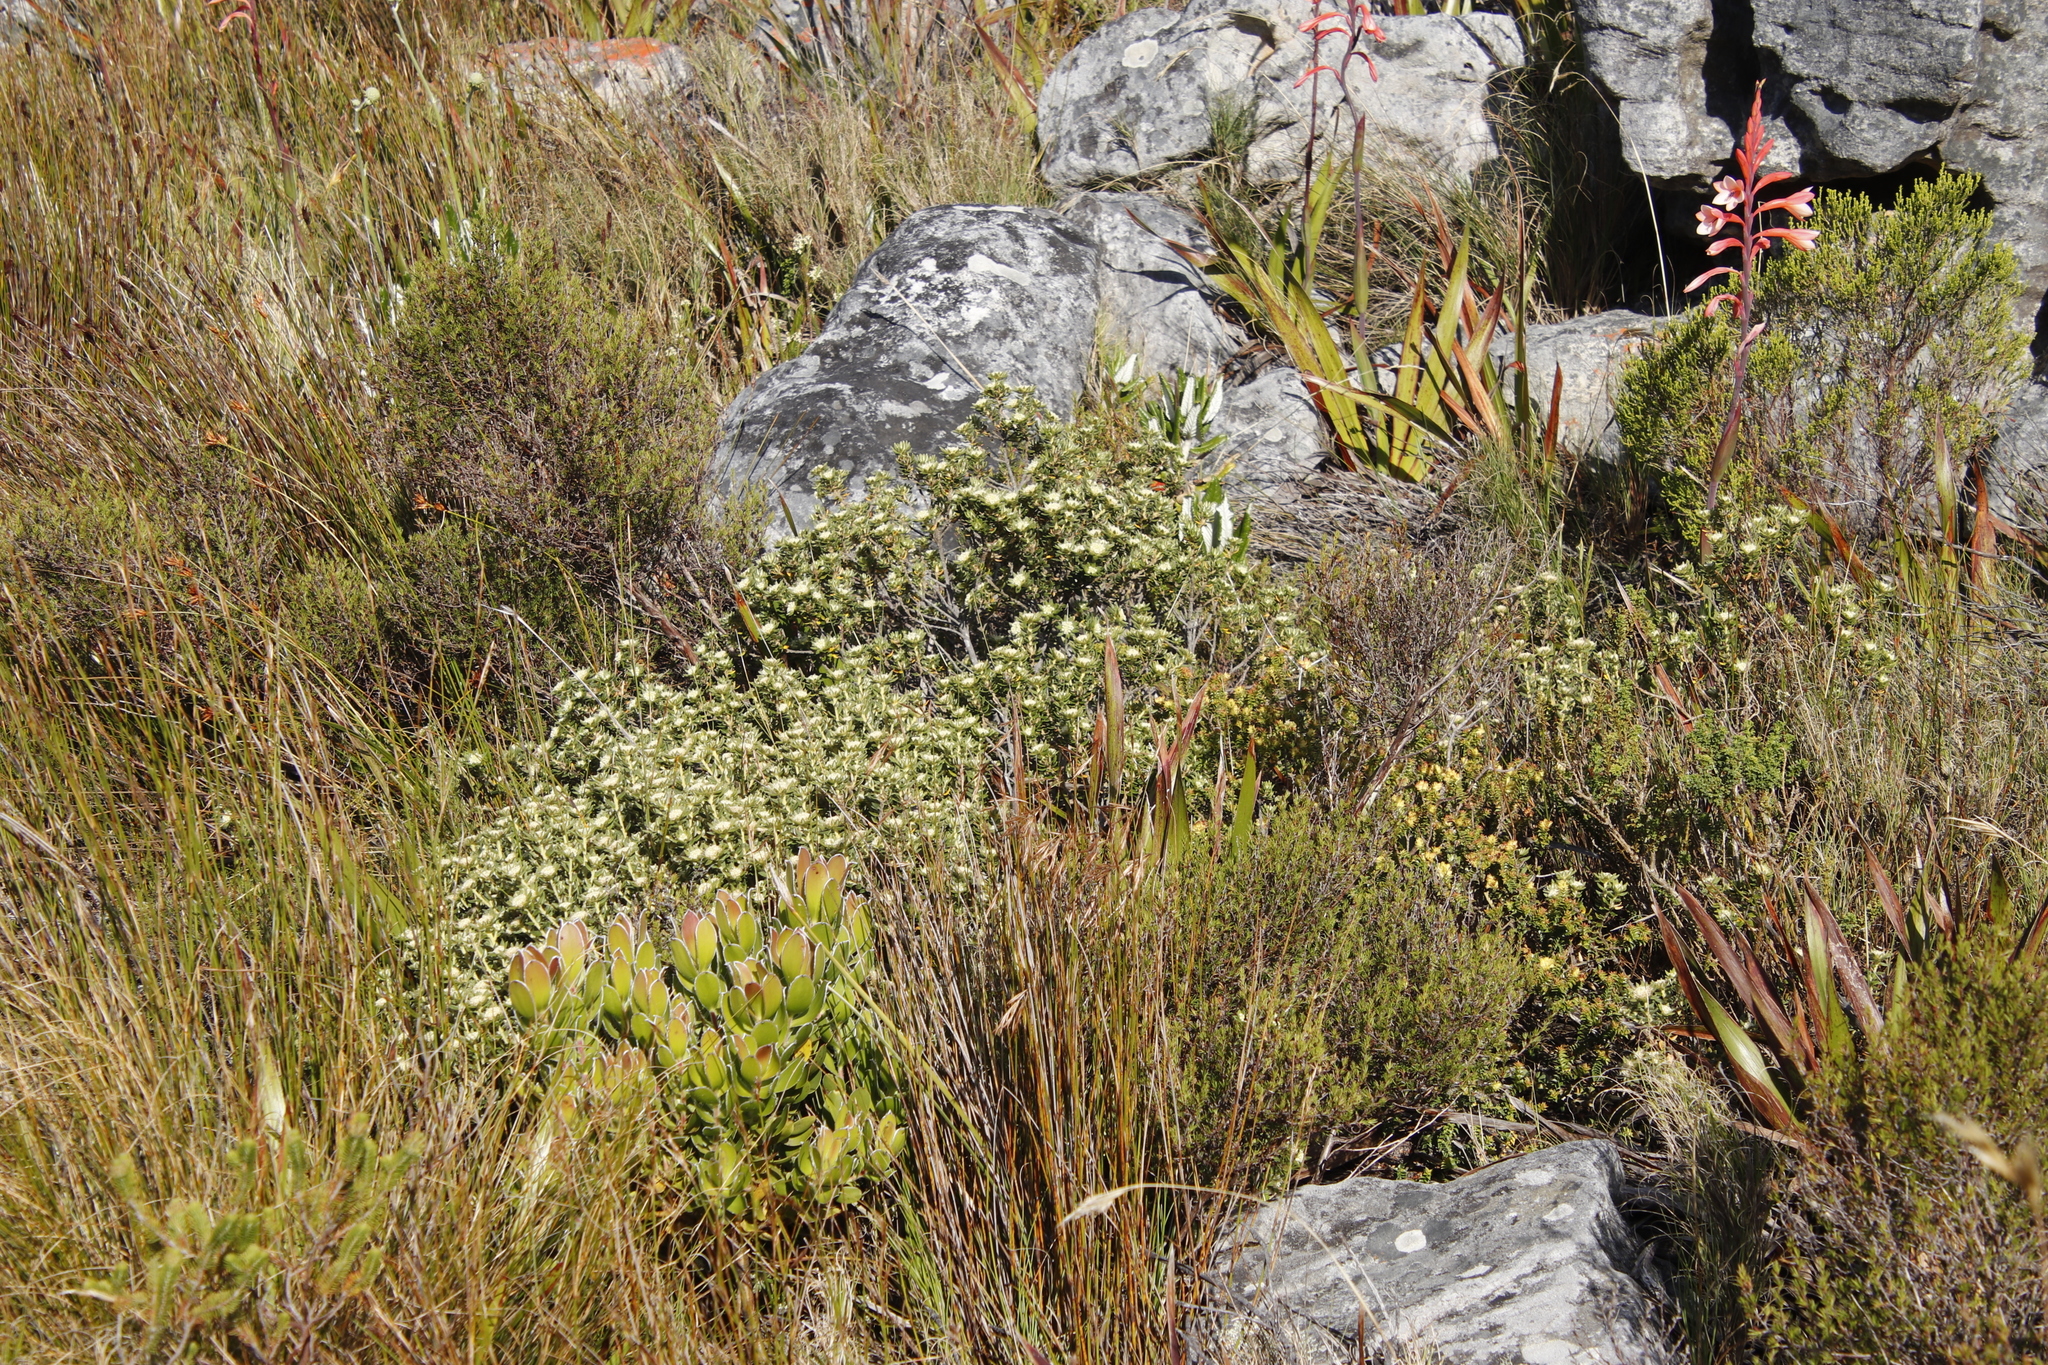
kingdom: Plantae
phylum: Tracheophyta
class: Magnoliopsida
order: Rosales
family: Rhamnaceae
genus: Phylica
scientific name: Phylica dioica
